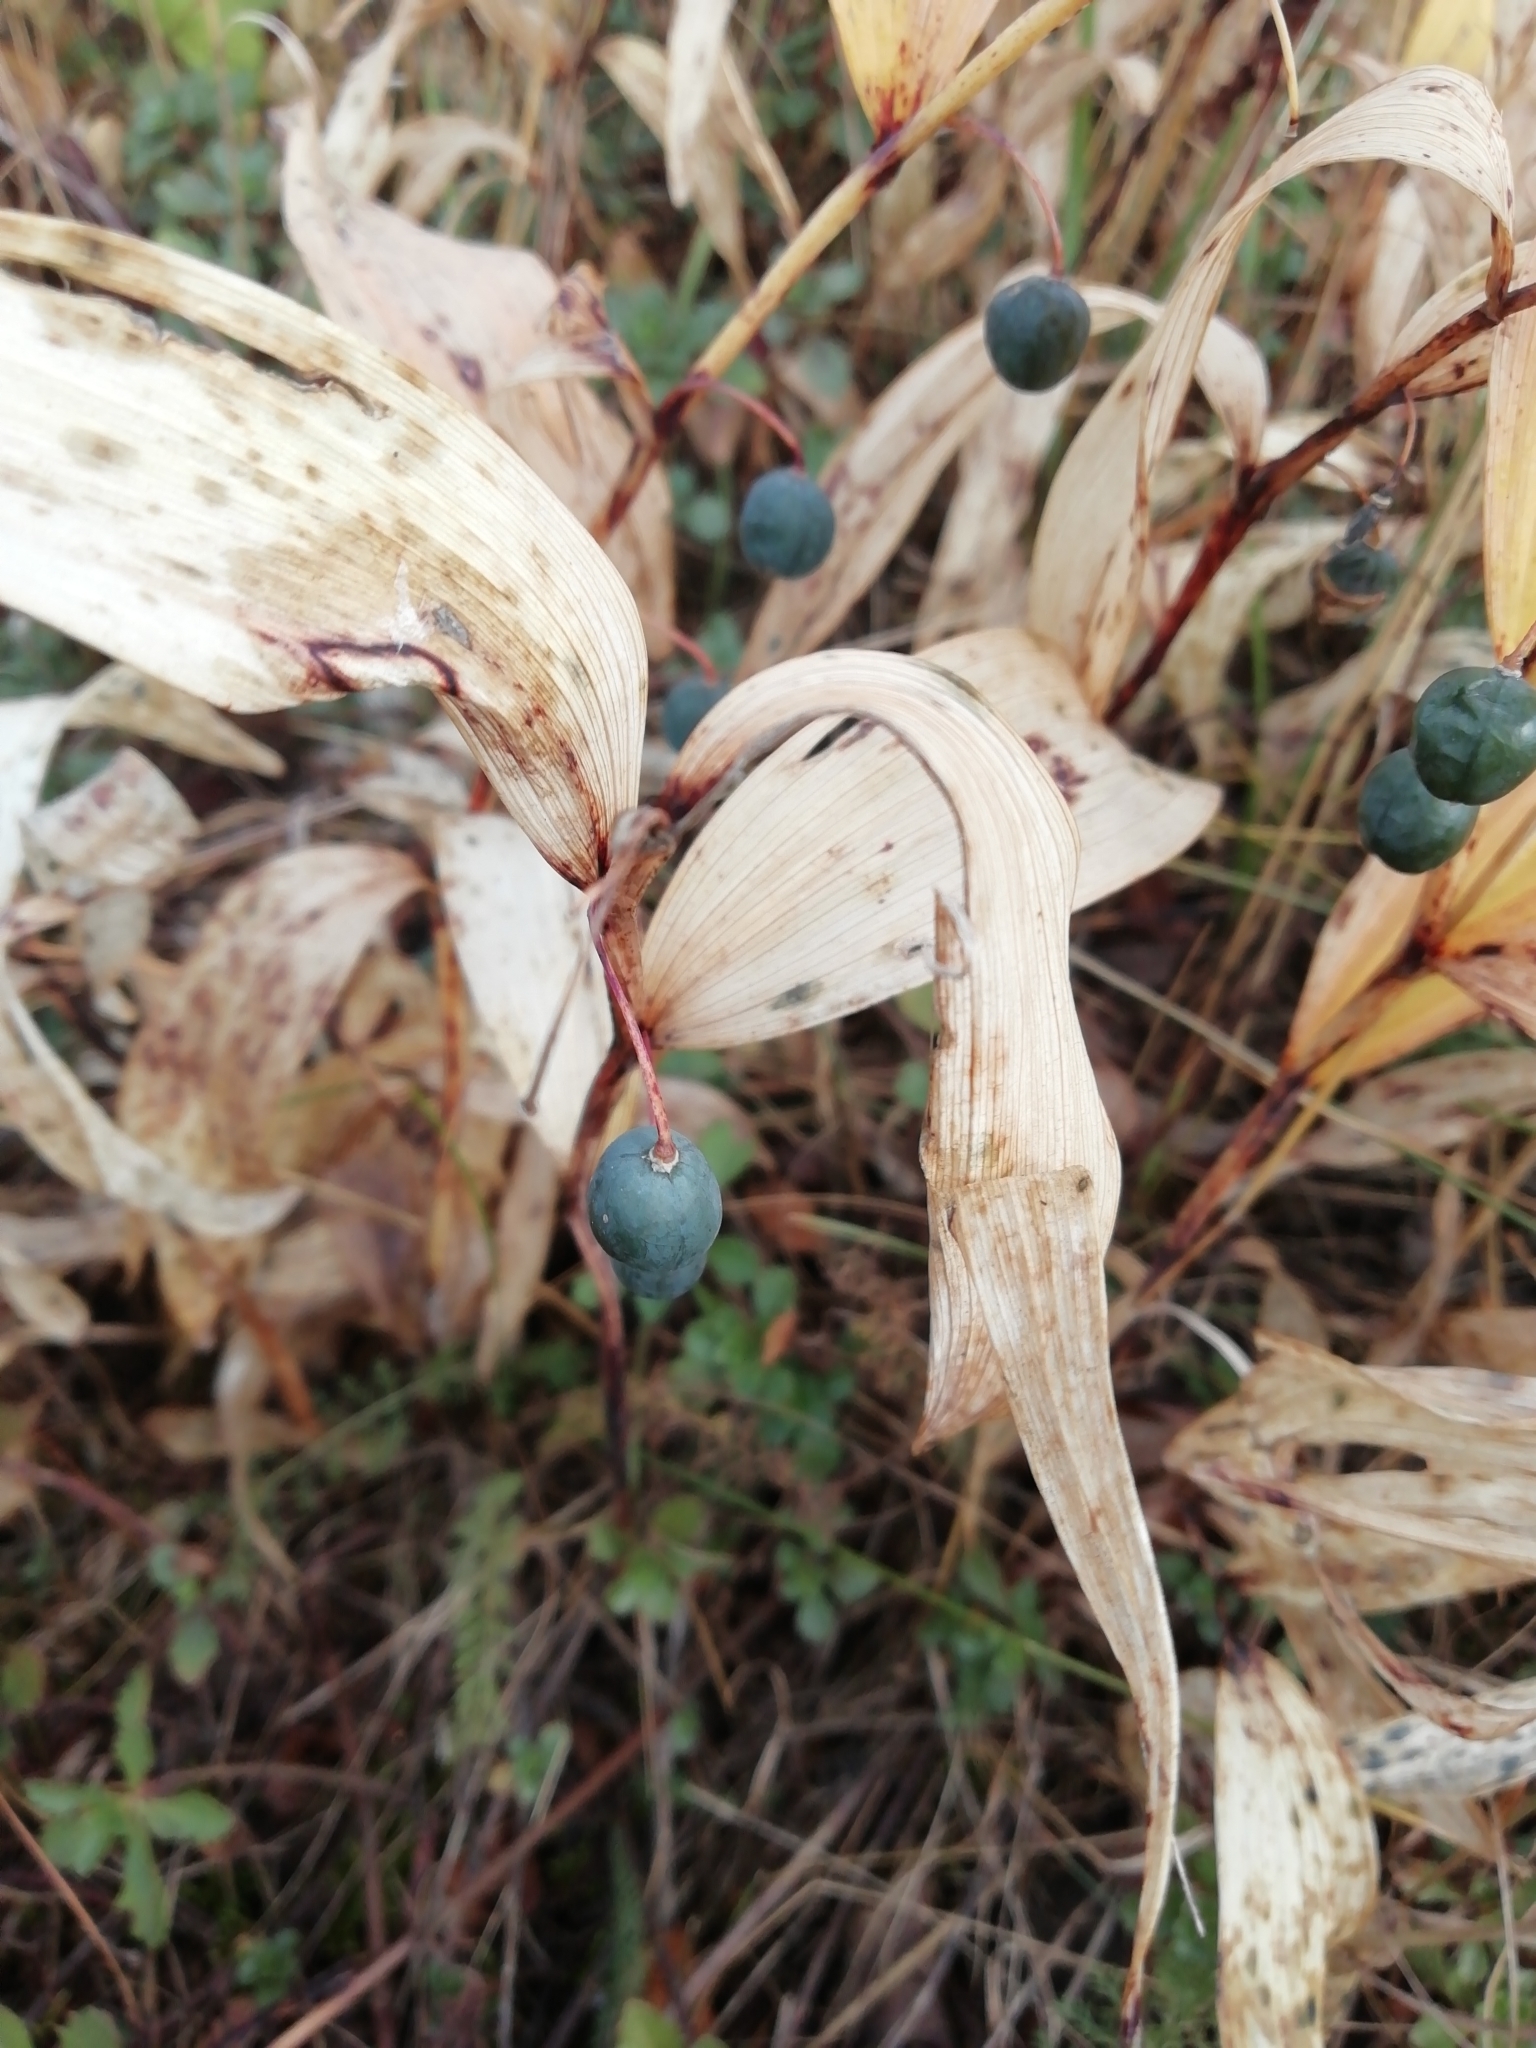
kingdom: Plantae
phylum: Tracheophyta
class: Liliopsida
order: Asparagales
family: Asparagaceae
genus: Polygonatum
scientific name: Polygonatum odoratum
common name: Angular solomon's-seal
